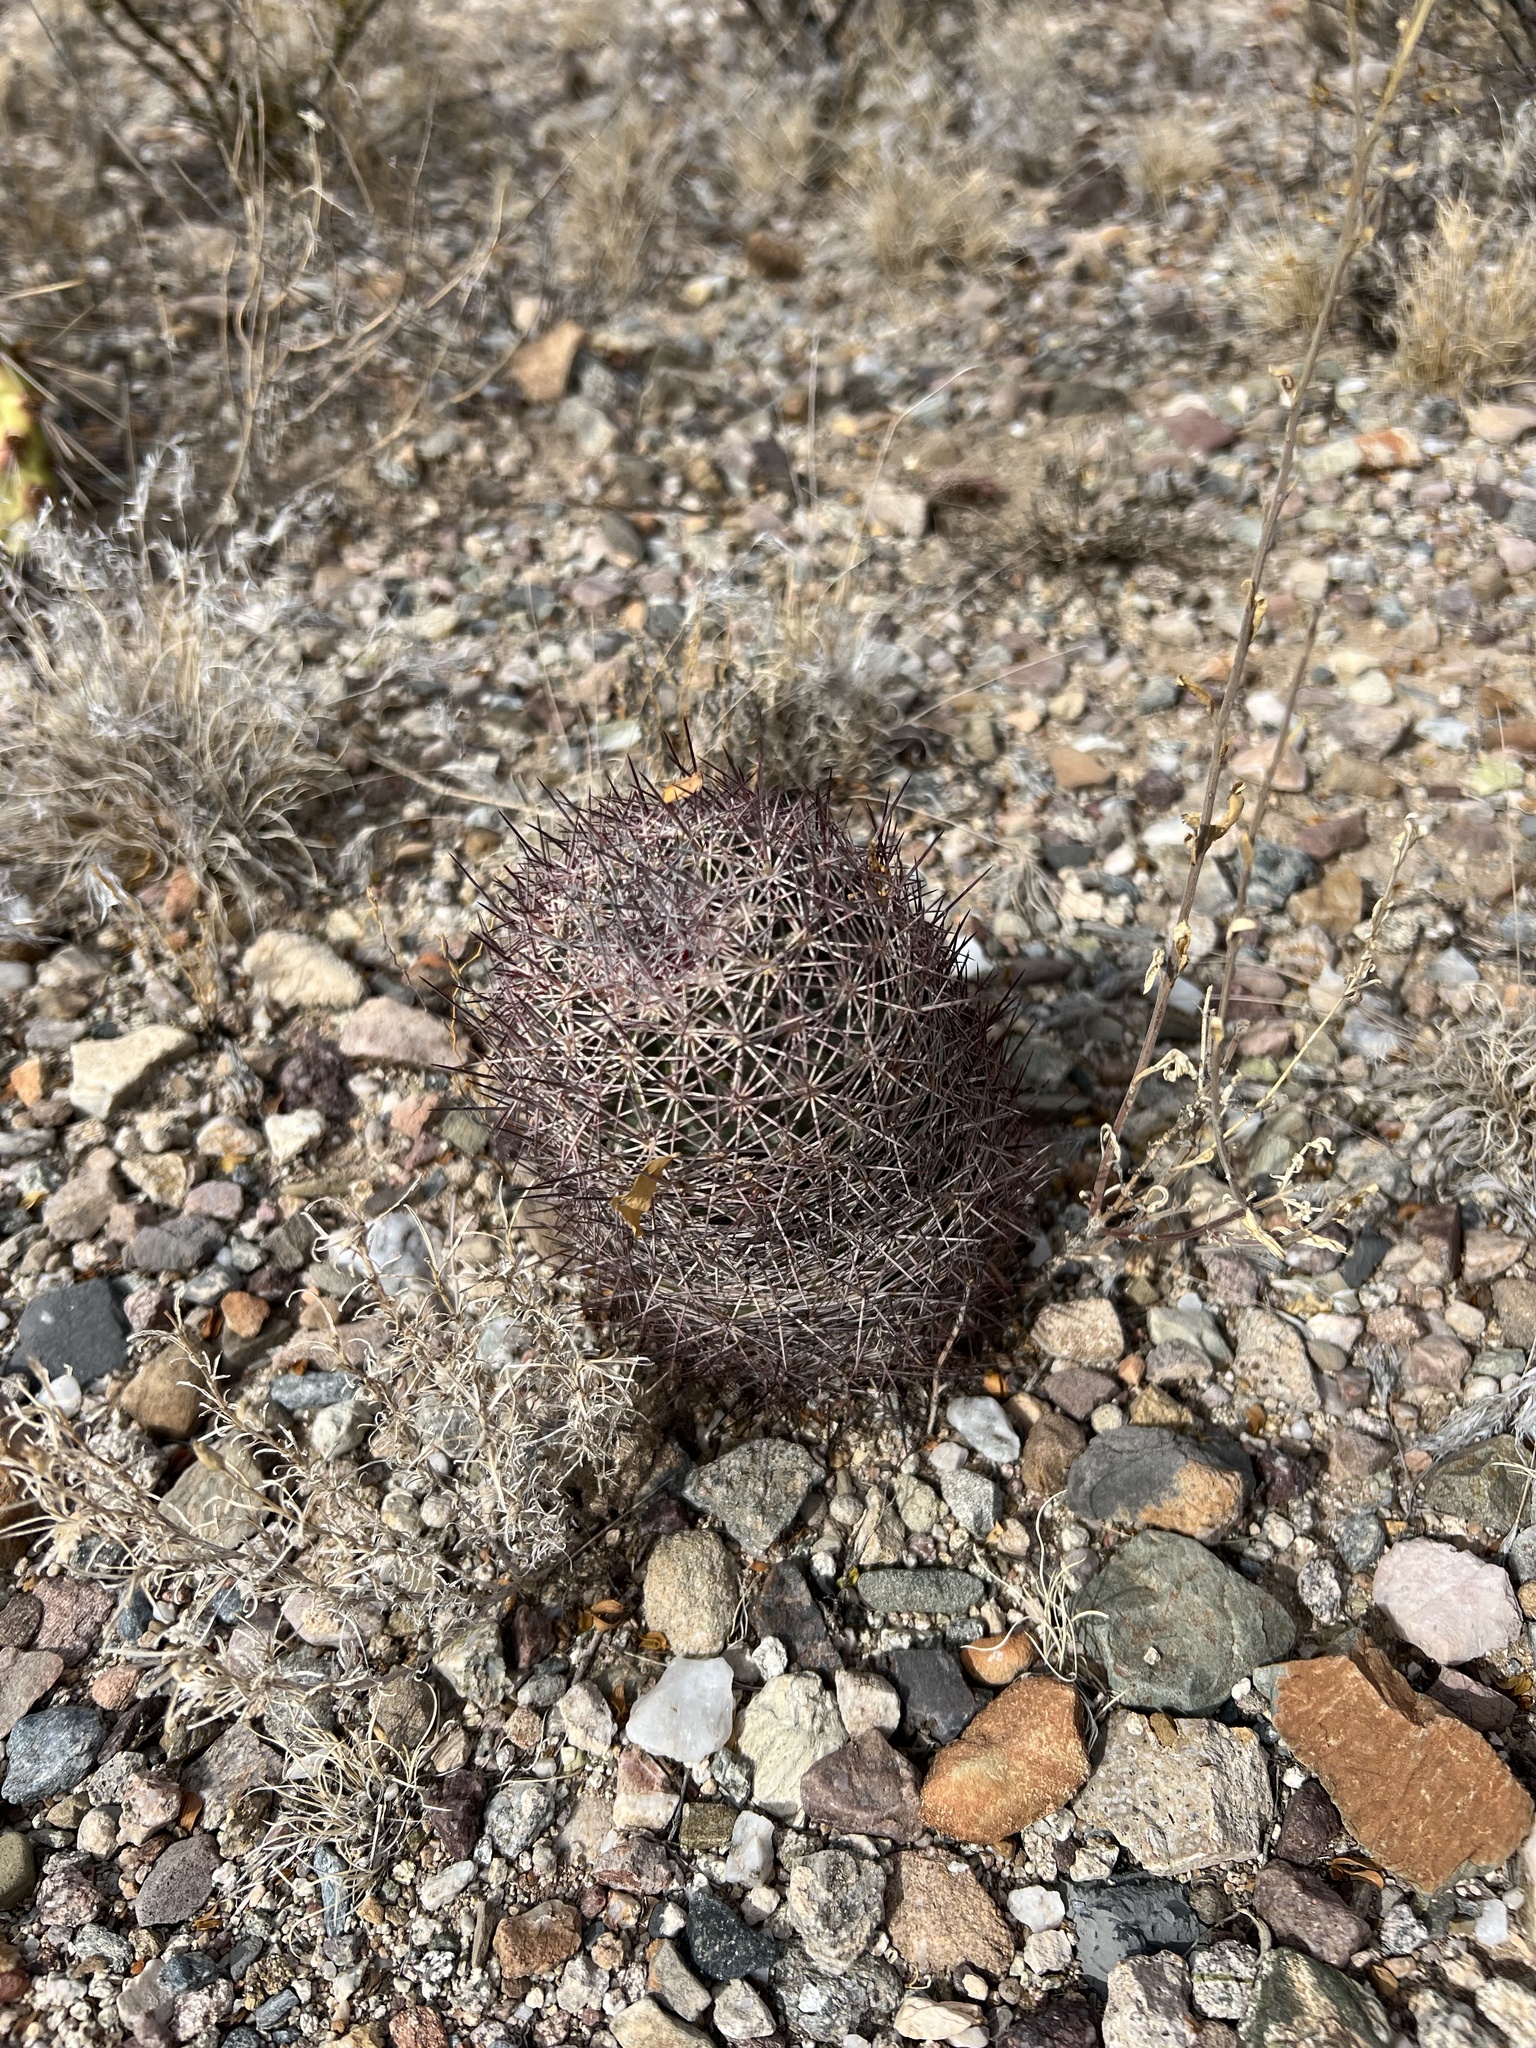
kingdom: Plantae
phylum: Tracheophyta
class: Magnoliopsida
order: Caryophyllales
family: Cactaceae
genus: Sclerocactus
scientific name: Sclerocactus johnsonii
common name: Eight-spine fishhook cactus
